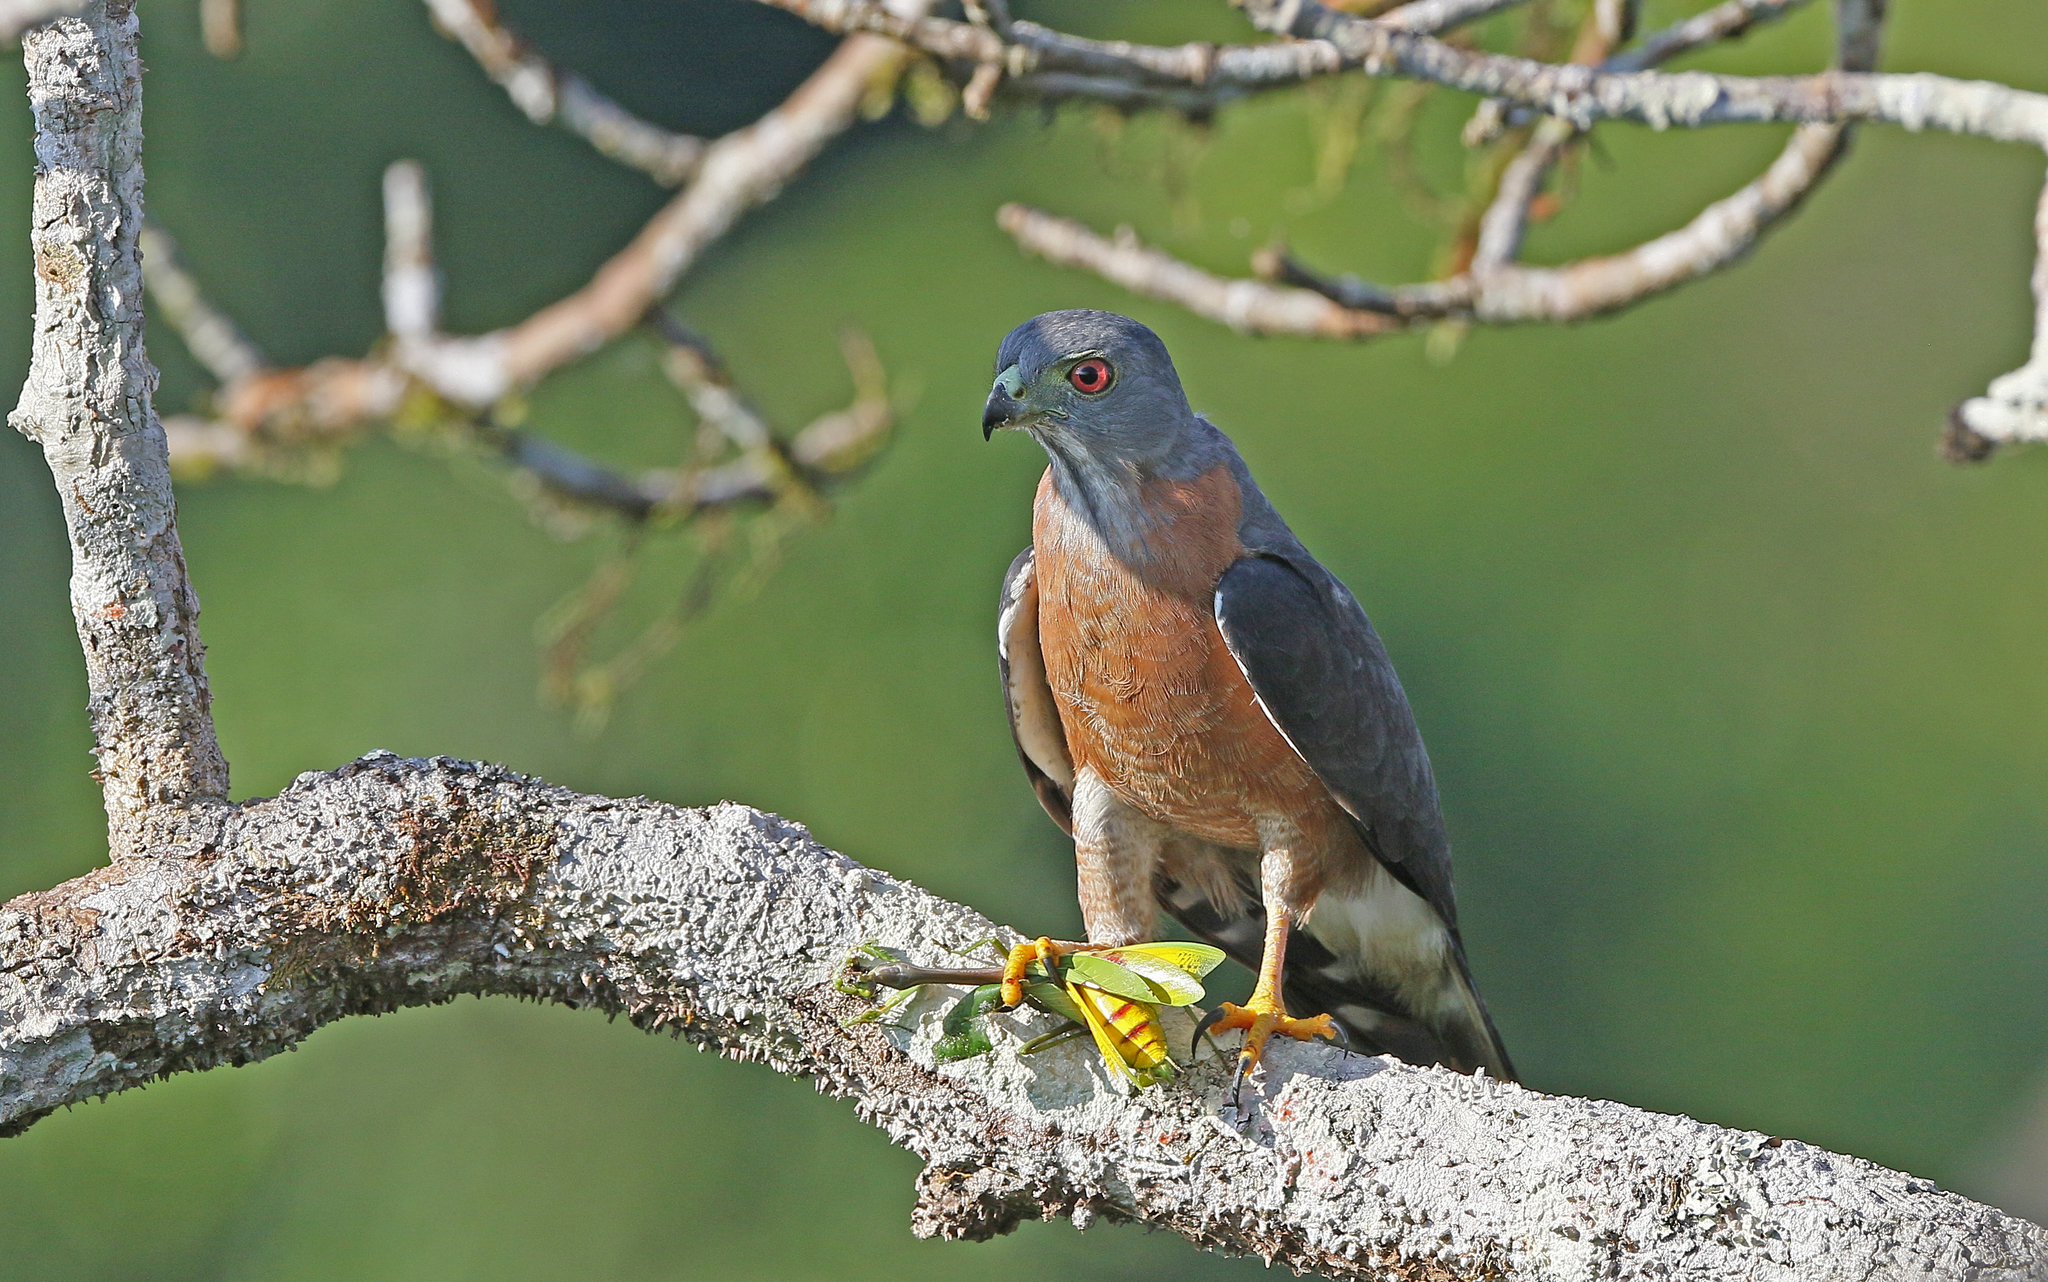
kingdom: Animalia
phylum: Chordata
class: Aves
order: Accipitriformes
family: Accipitridae
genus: Harpagus
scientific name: Harpagus bidentatus
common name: Double-toothed kite
